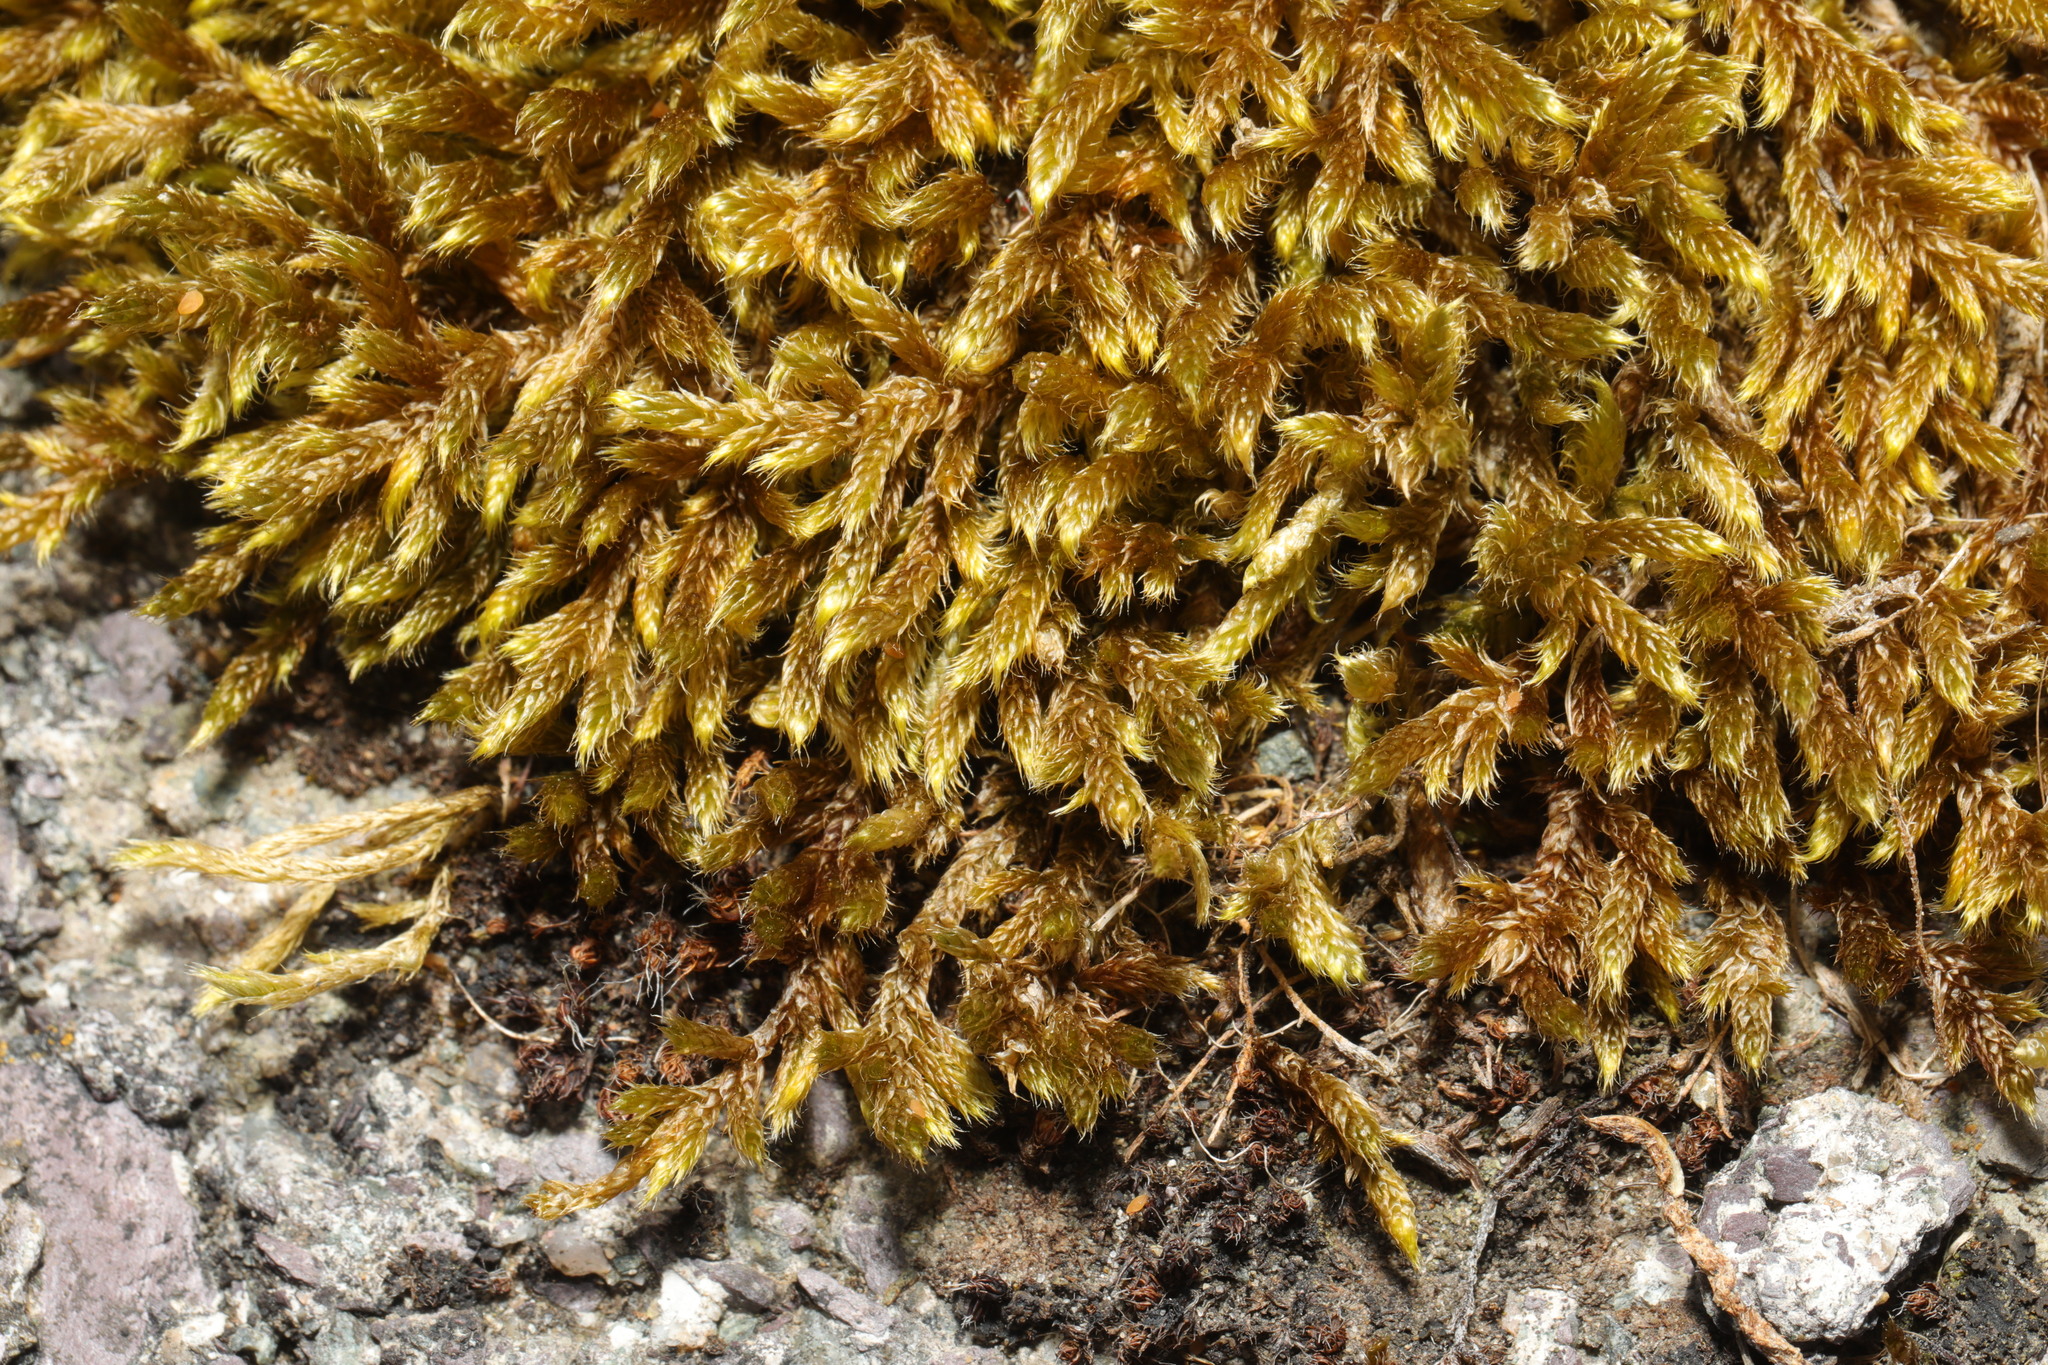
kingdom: Plantae
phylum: Bryophyta
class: Bryopsida
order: Hypnales
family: Hypnaceae
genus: Hypnum
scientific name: Hypnum cupressiforme
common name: Cypress-leaved plait-moss
